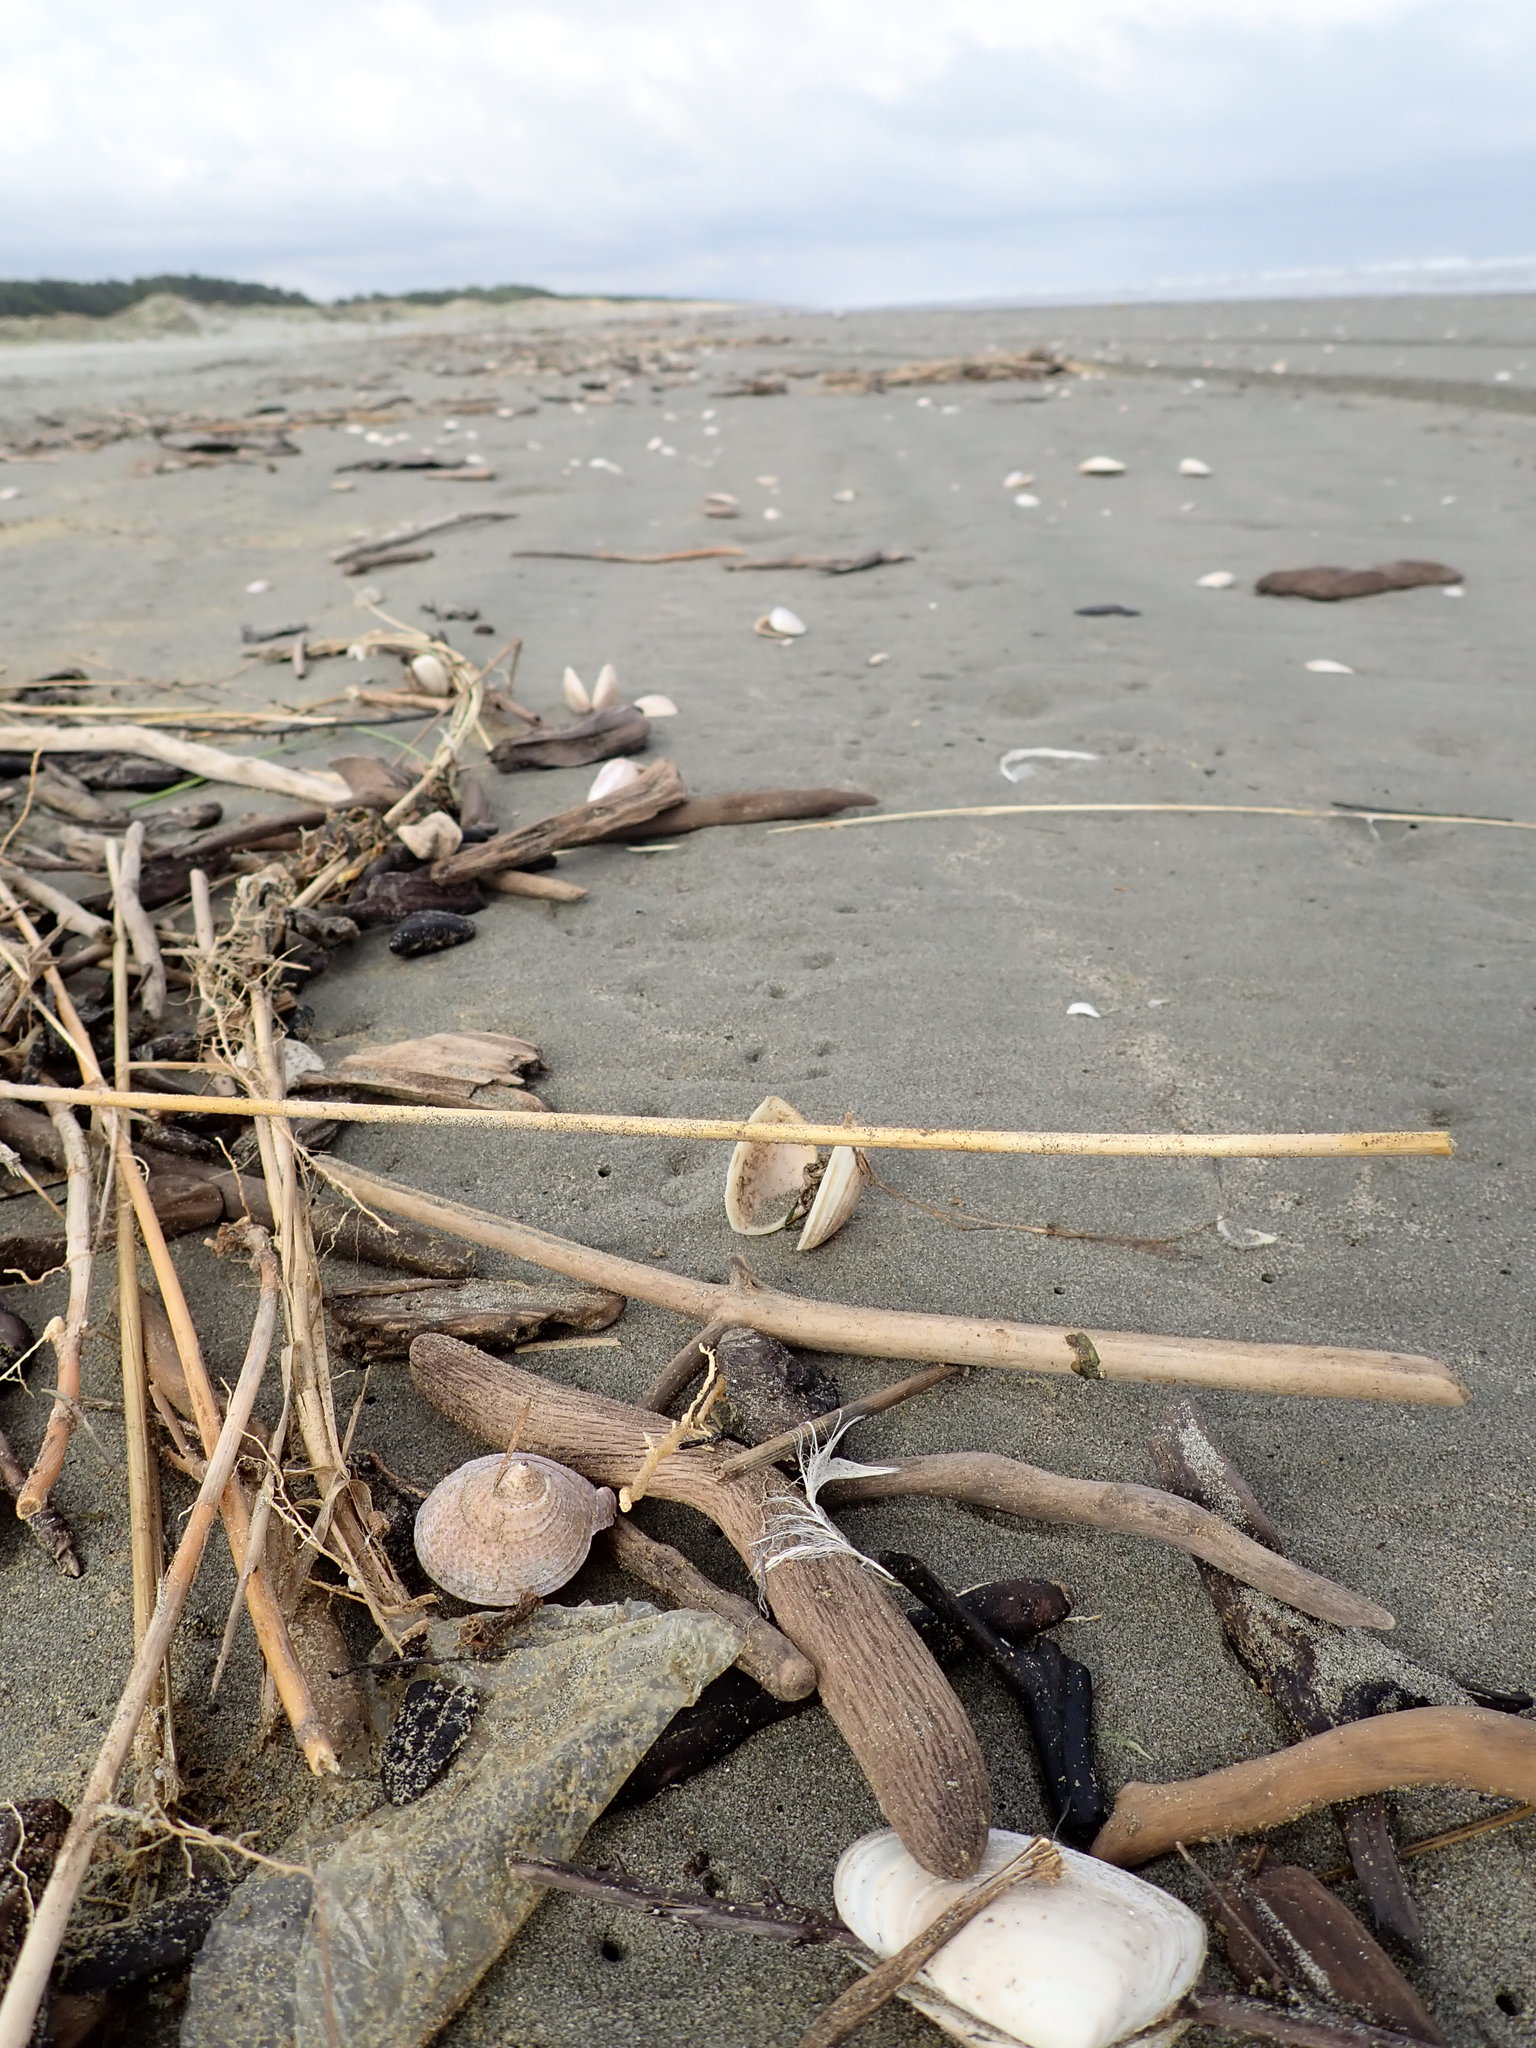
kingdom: Animalia
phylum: Mollusca
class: Gastropoda
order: Trochida
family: Calliostomatidae
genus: Maurea
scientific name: Maurea selecta
